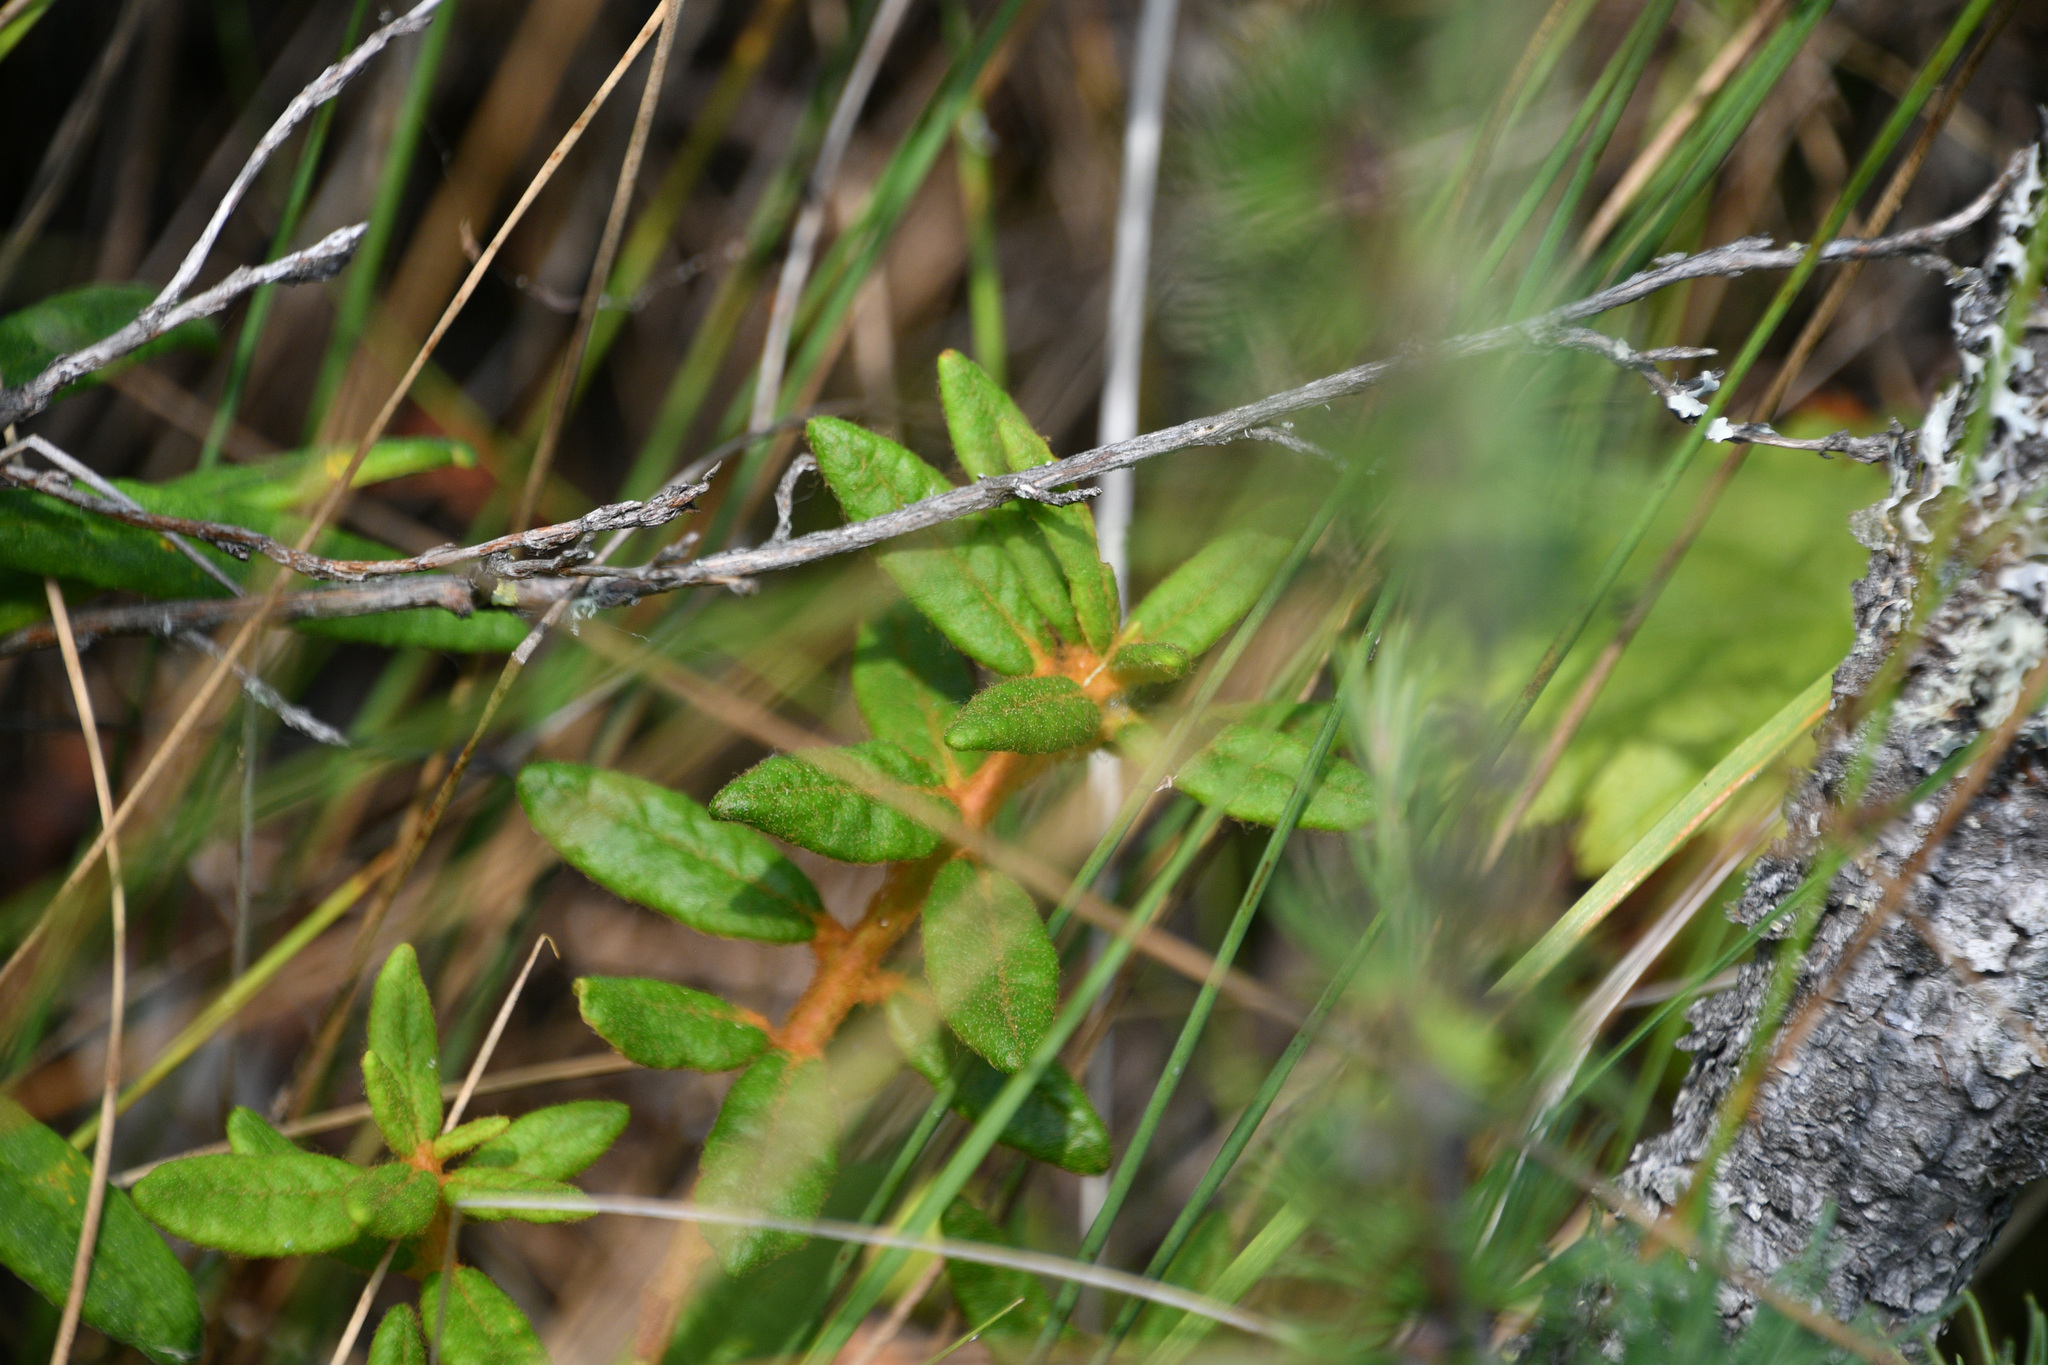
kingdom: Plantae
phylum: Tracheophyta
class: Magnoliopsida
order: Ericales
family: Ericaceae
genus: Rhododendron
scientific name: Rhododendron groenlandicum
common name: Bog labrador tea
